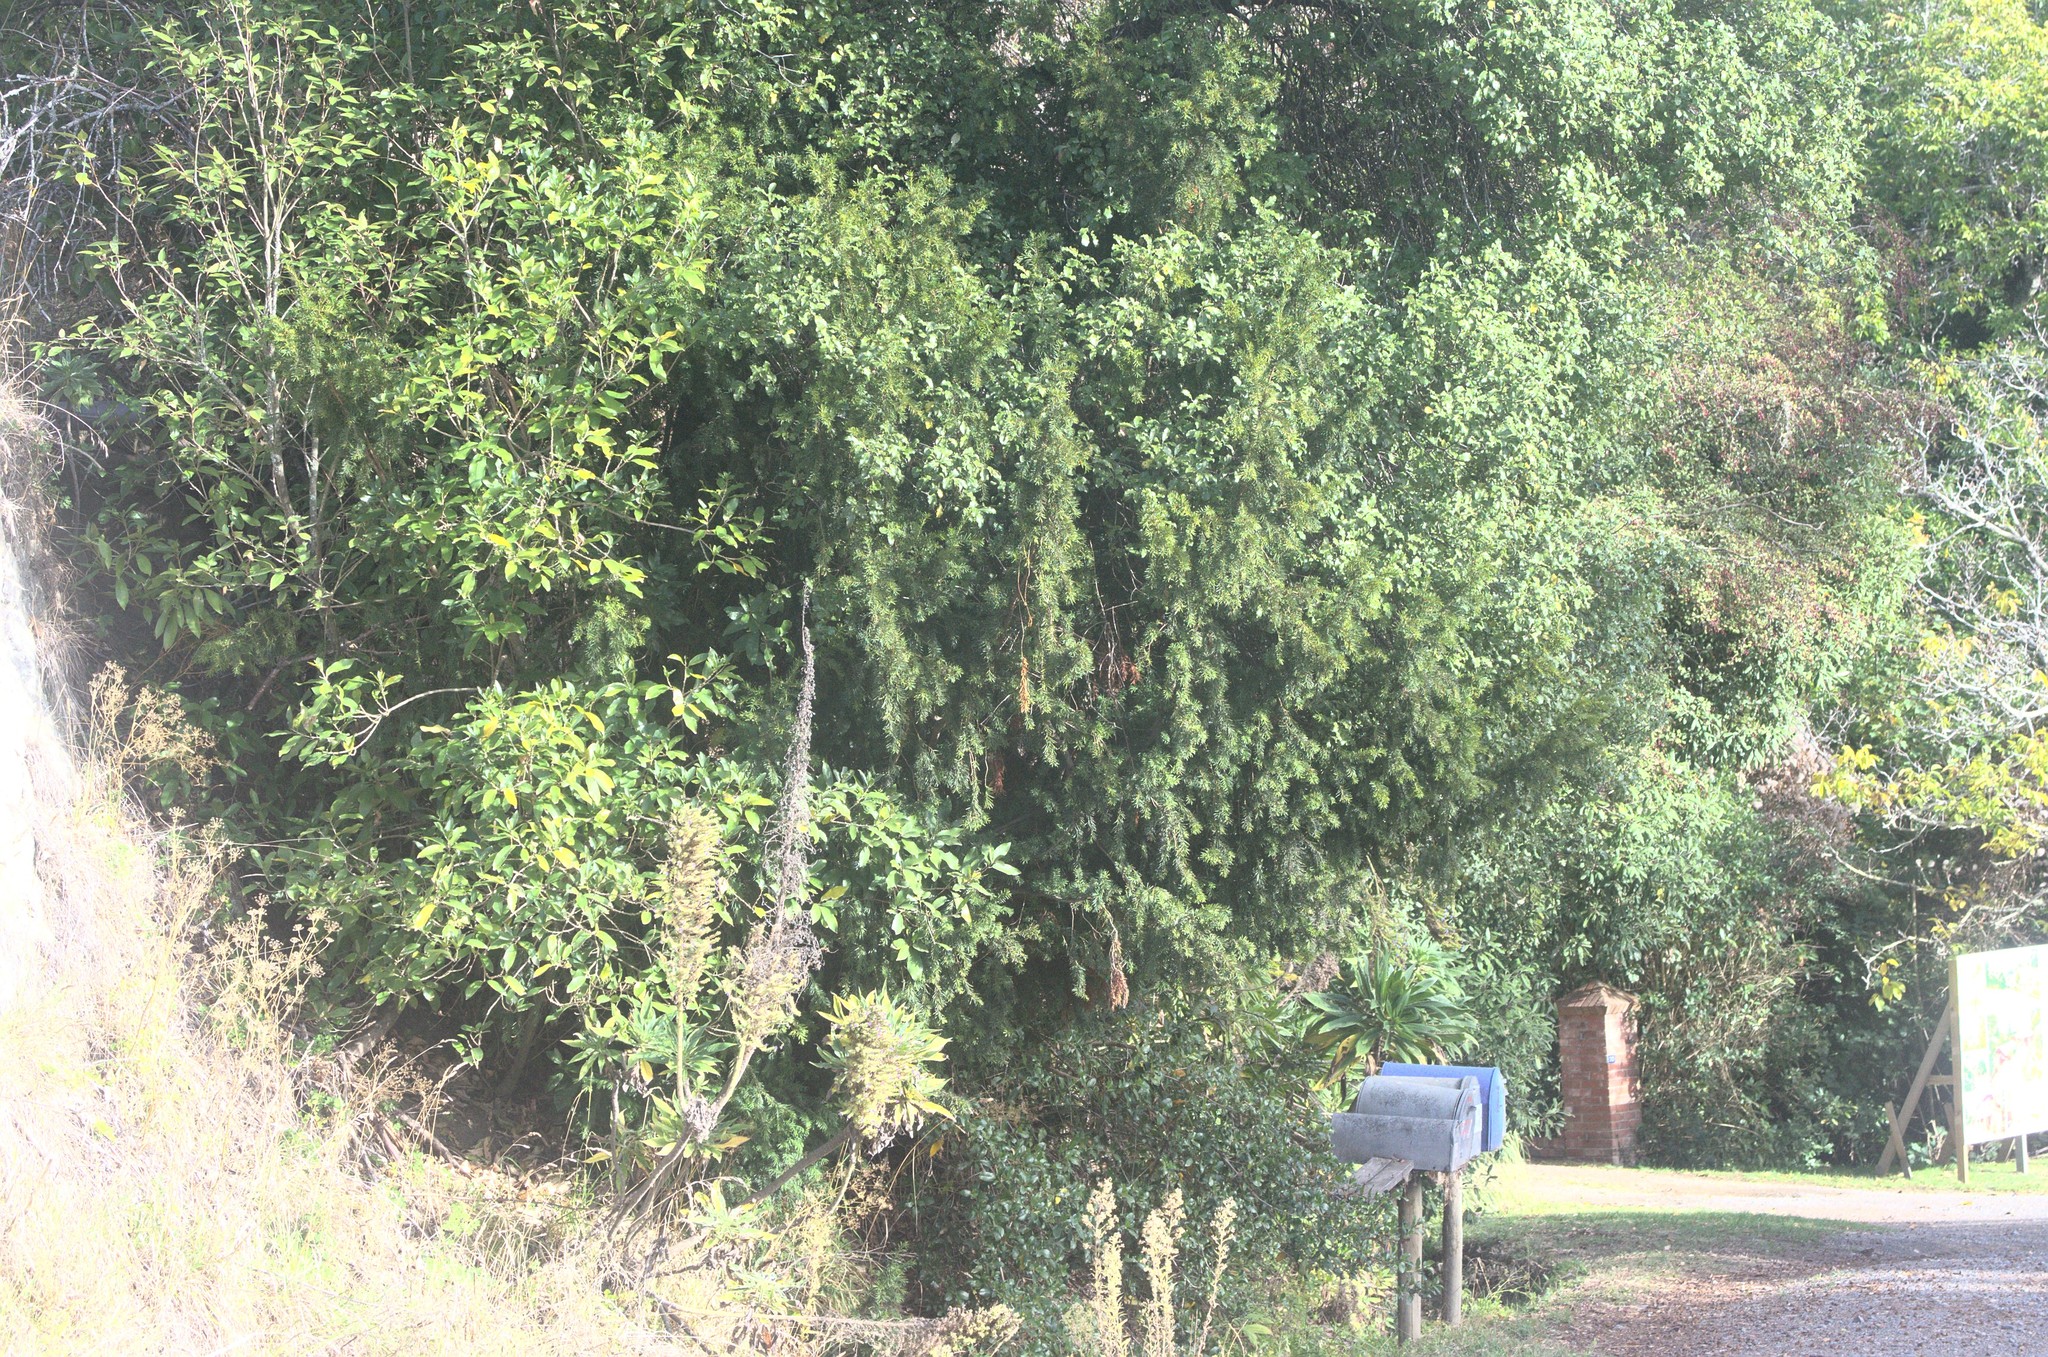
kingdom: Plantae
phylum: Tracheophyta
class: Pinopsida
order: Pinales
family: Taxaceae
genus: Taxus
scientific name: Taxus baccata
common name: Yew
